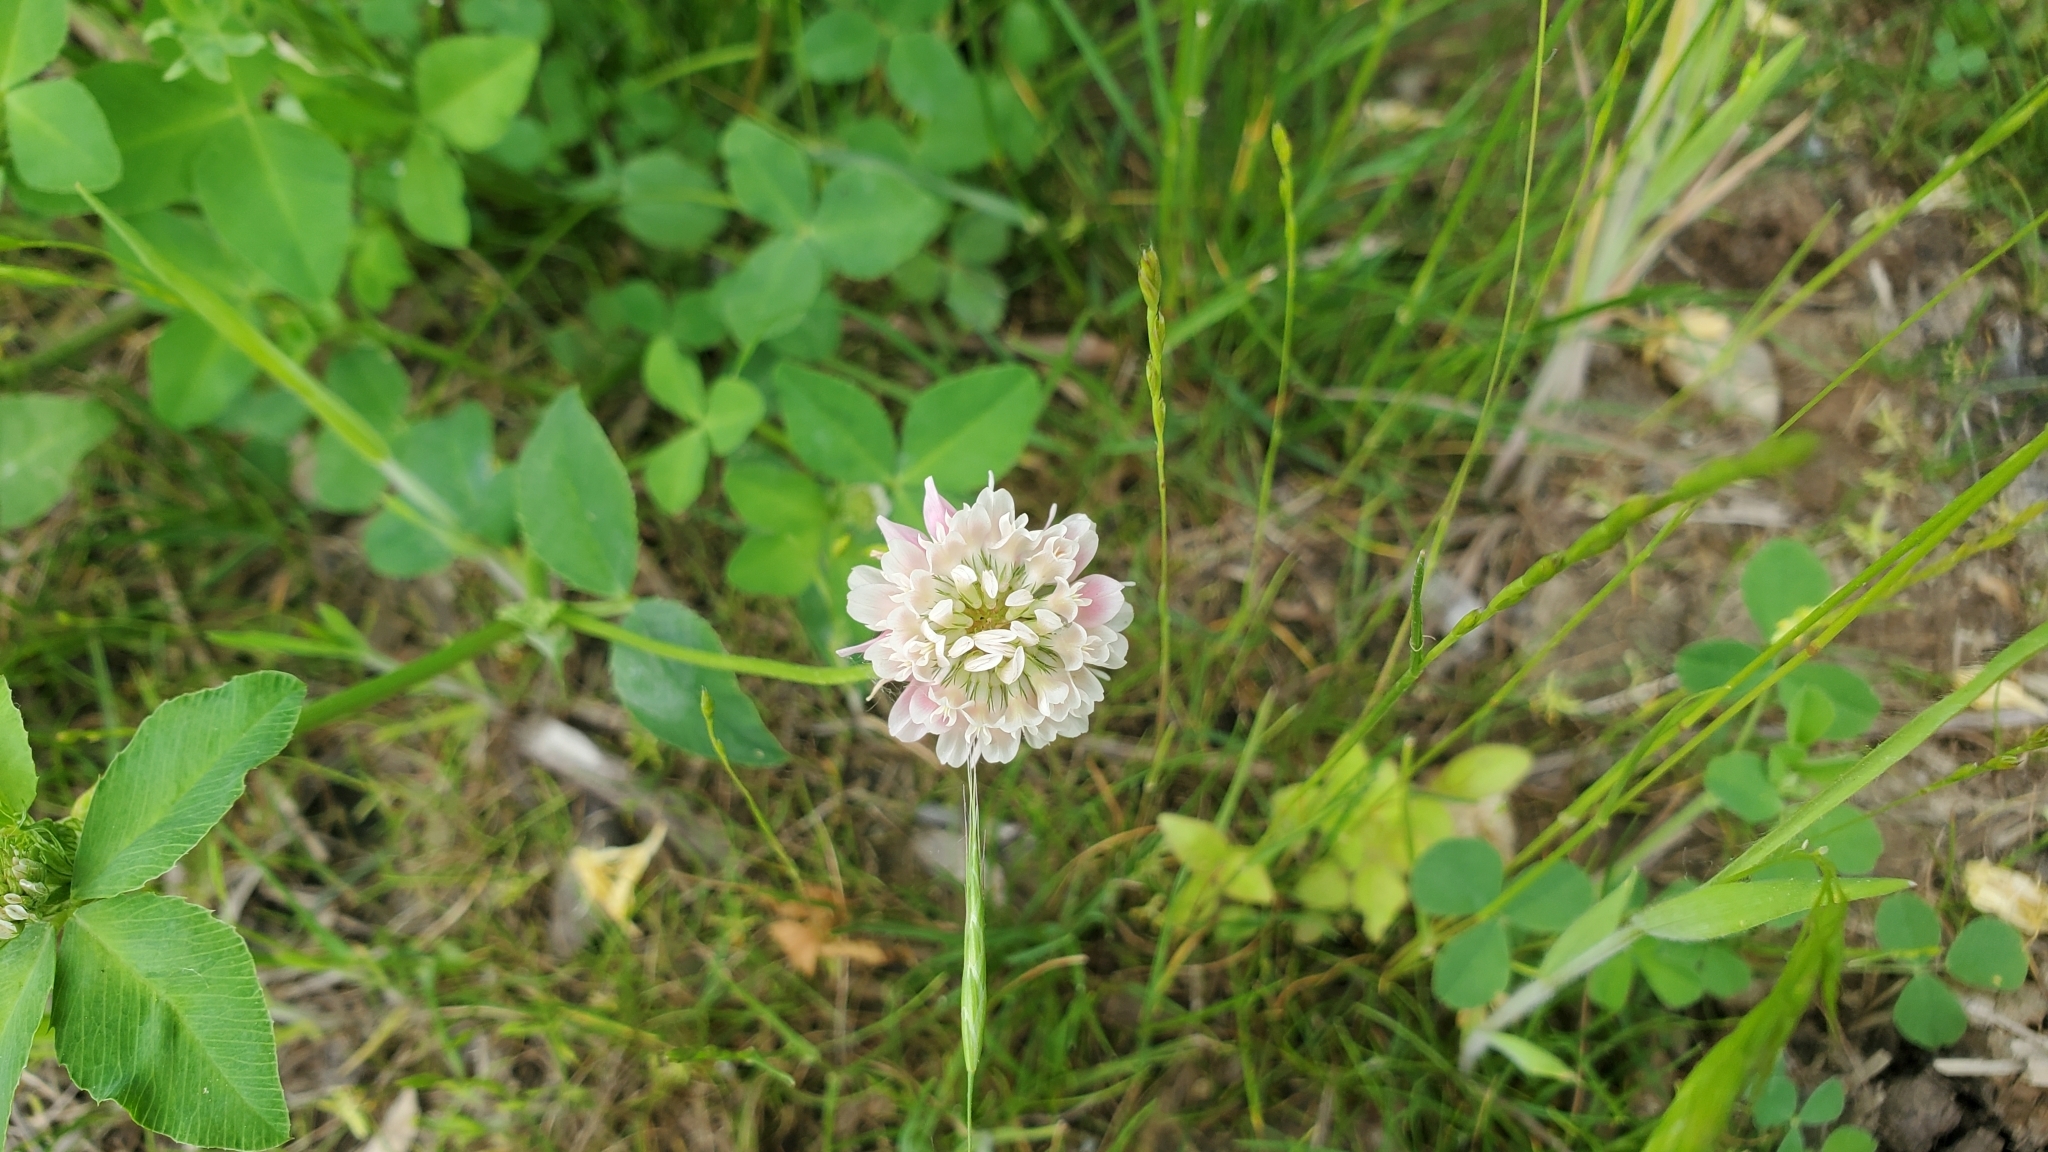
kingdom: Plantae
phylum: Tracheophyta
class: Magnoliopsida
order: Fabales
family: Fabaceae
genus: Trifolium
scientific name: Trifolium hybridum
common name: Alsike clover
